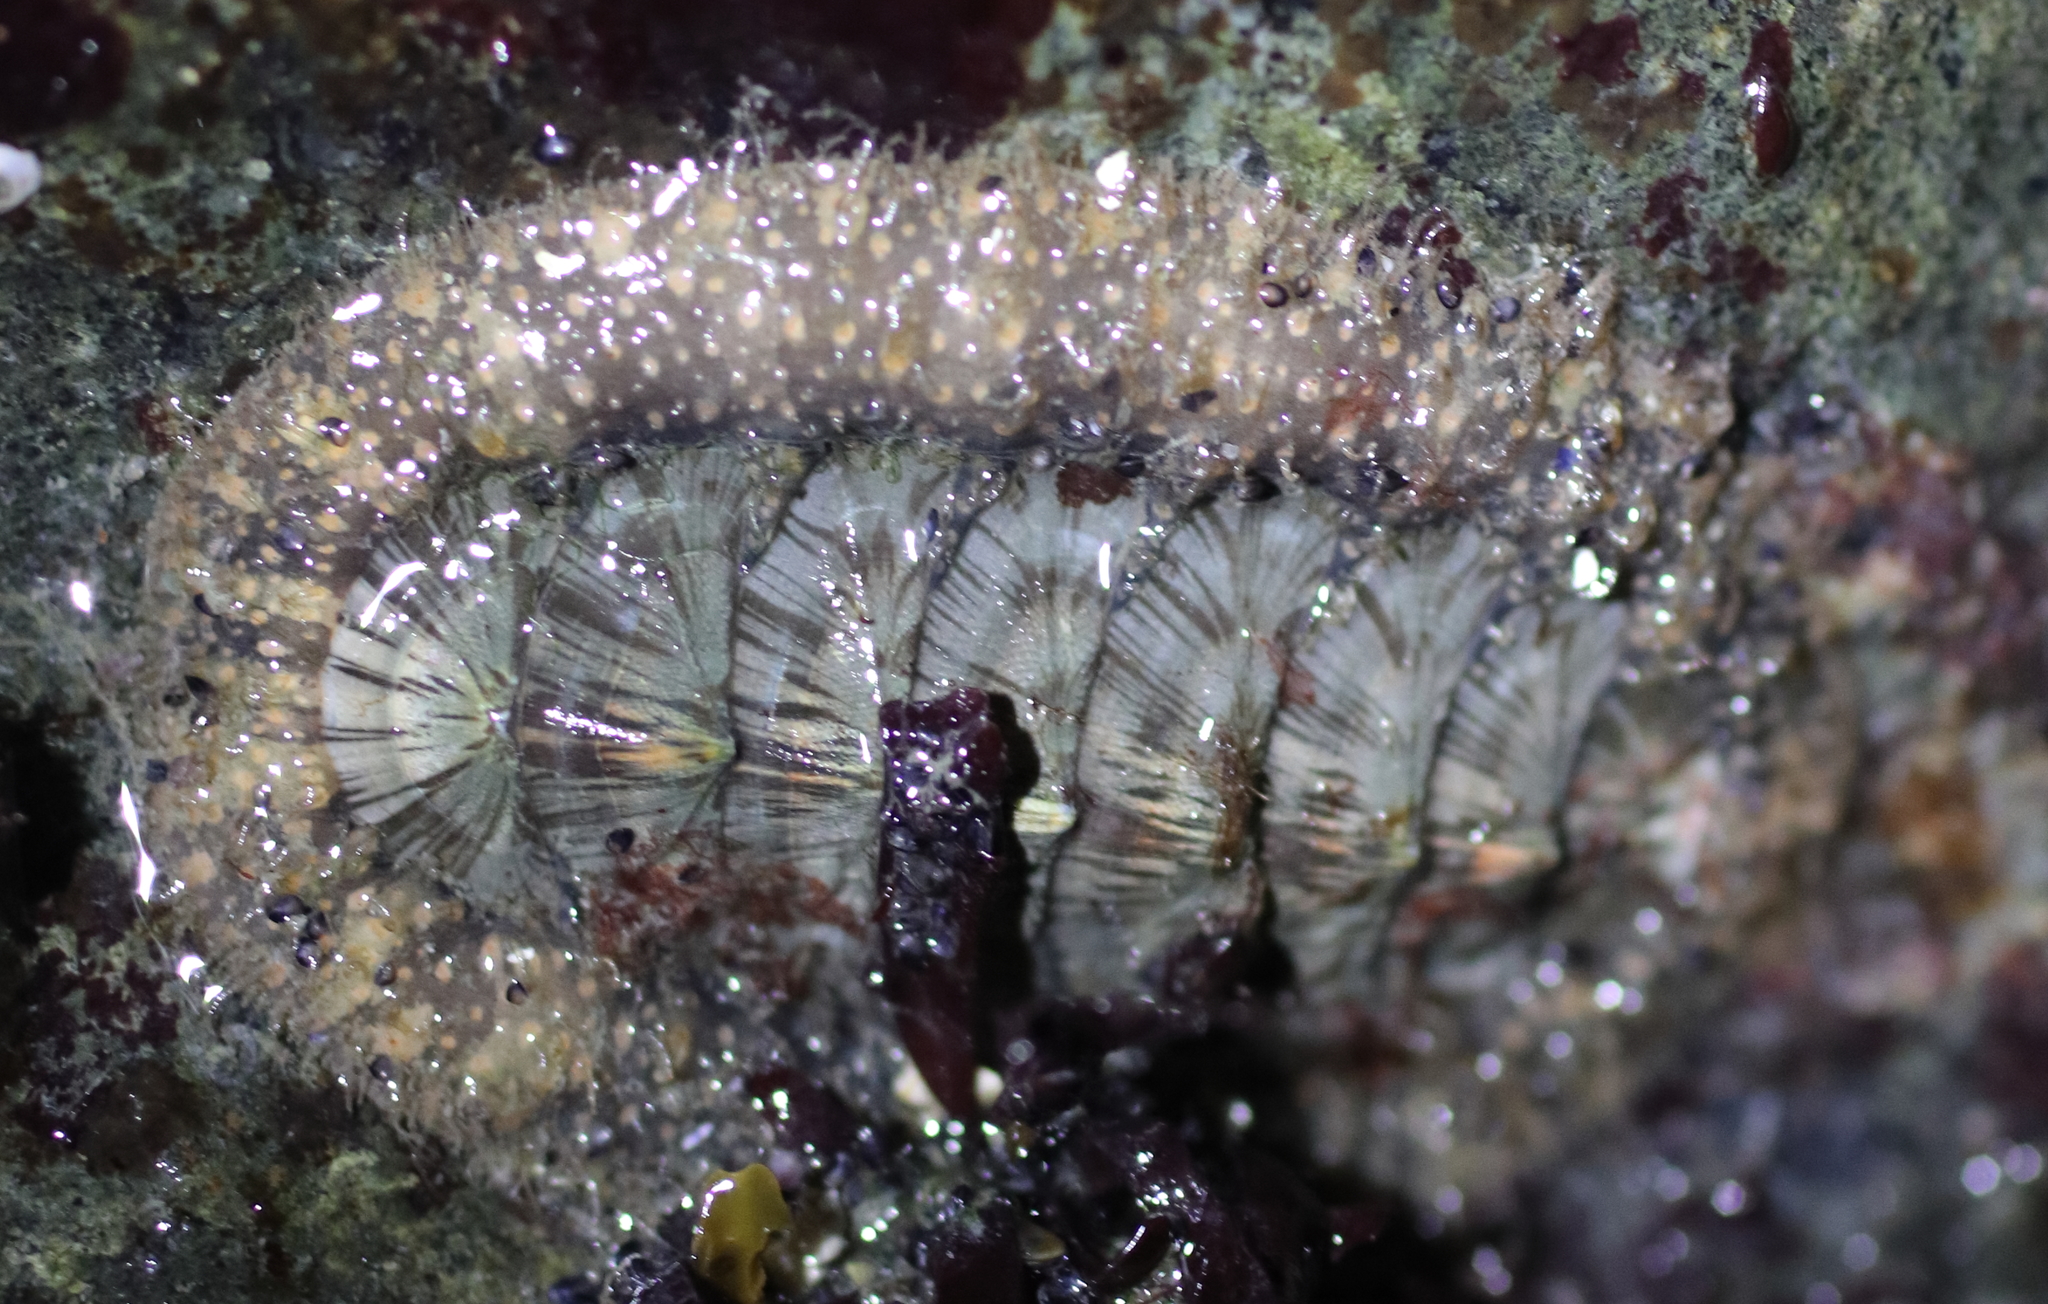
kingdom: Animalia
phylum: Mollusca
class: Polyplacophora
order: Chitonida
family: Mopaliidae
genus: Mopalia
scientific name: Mopalia lignosa
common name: Woody chiton
